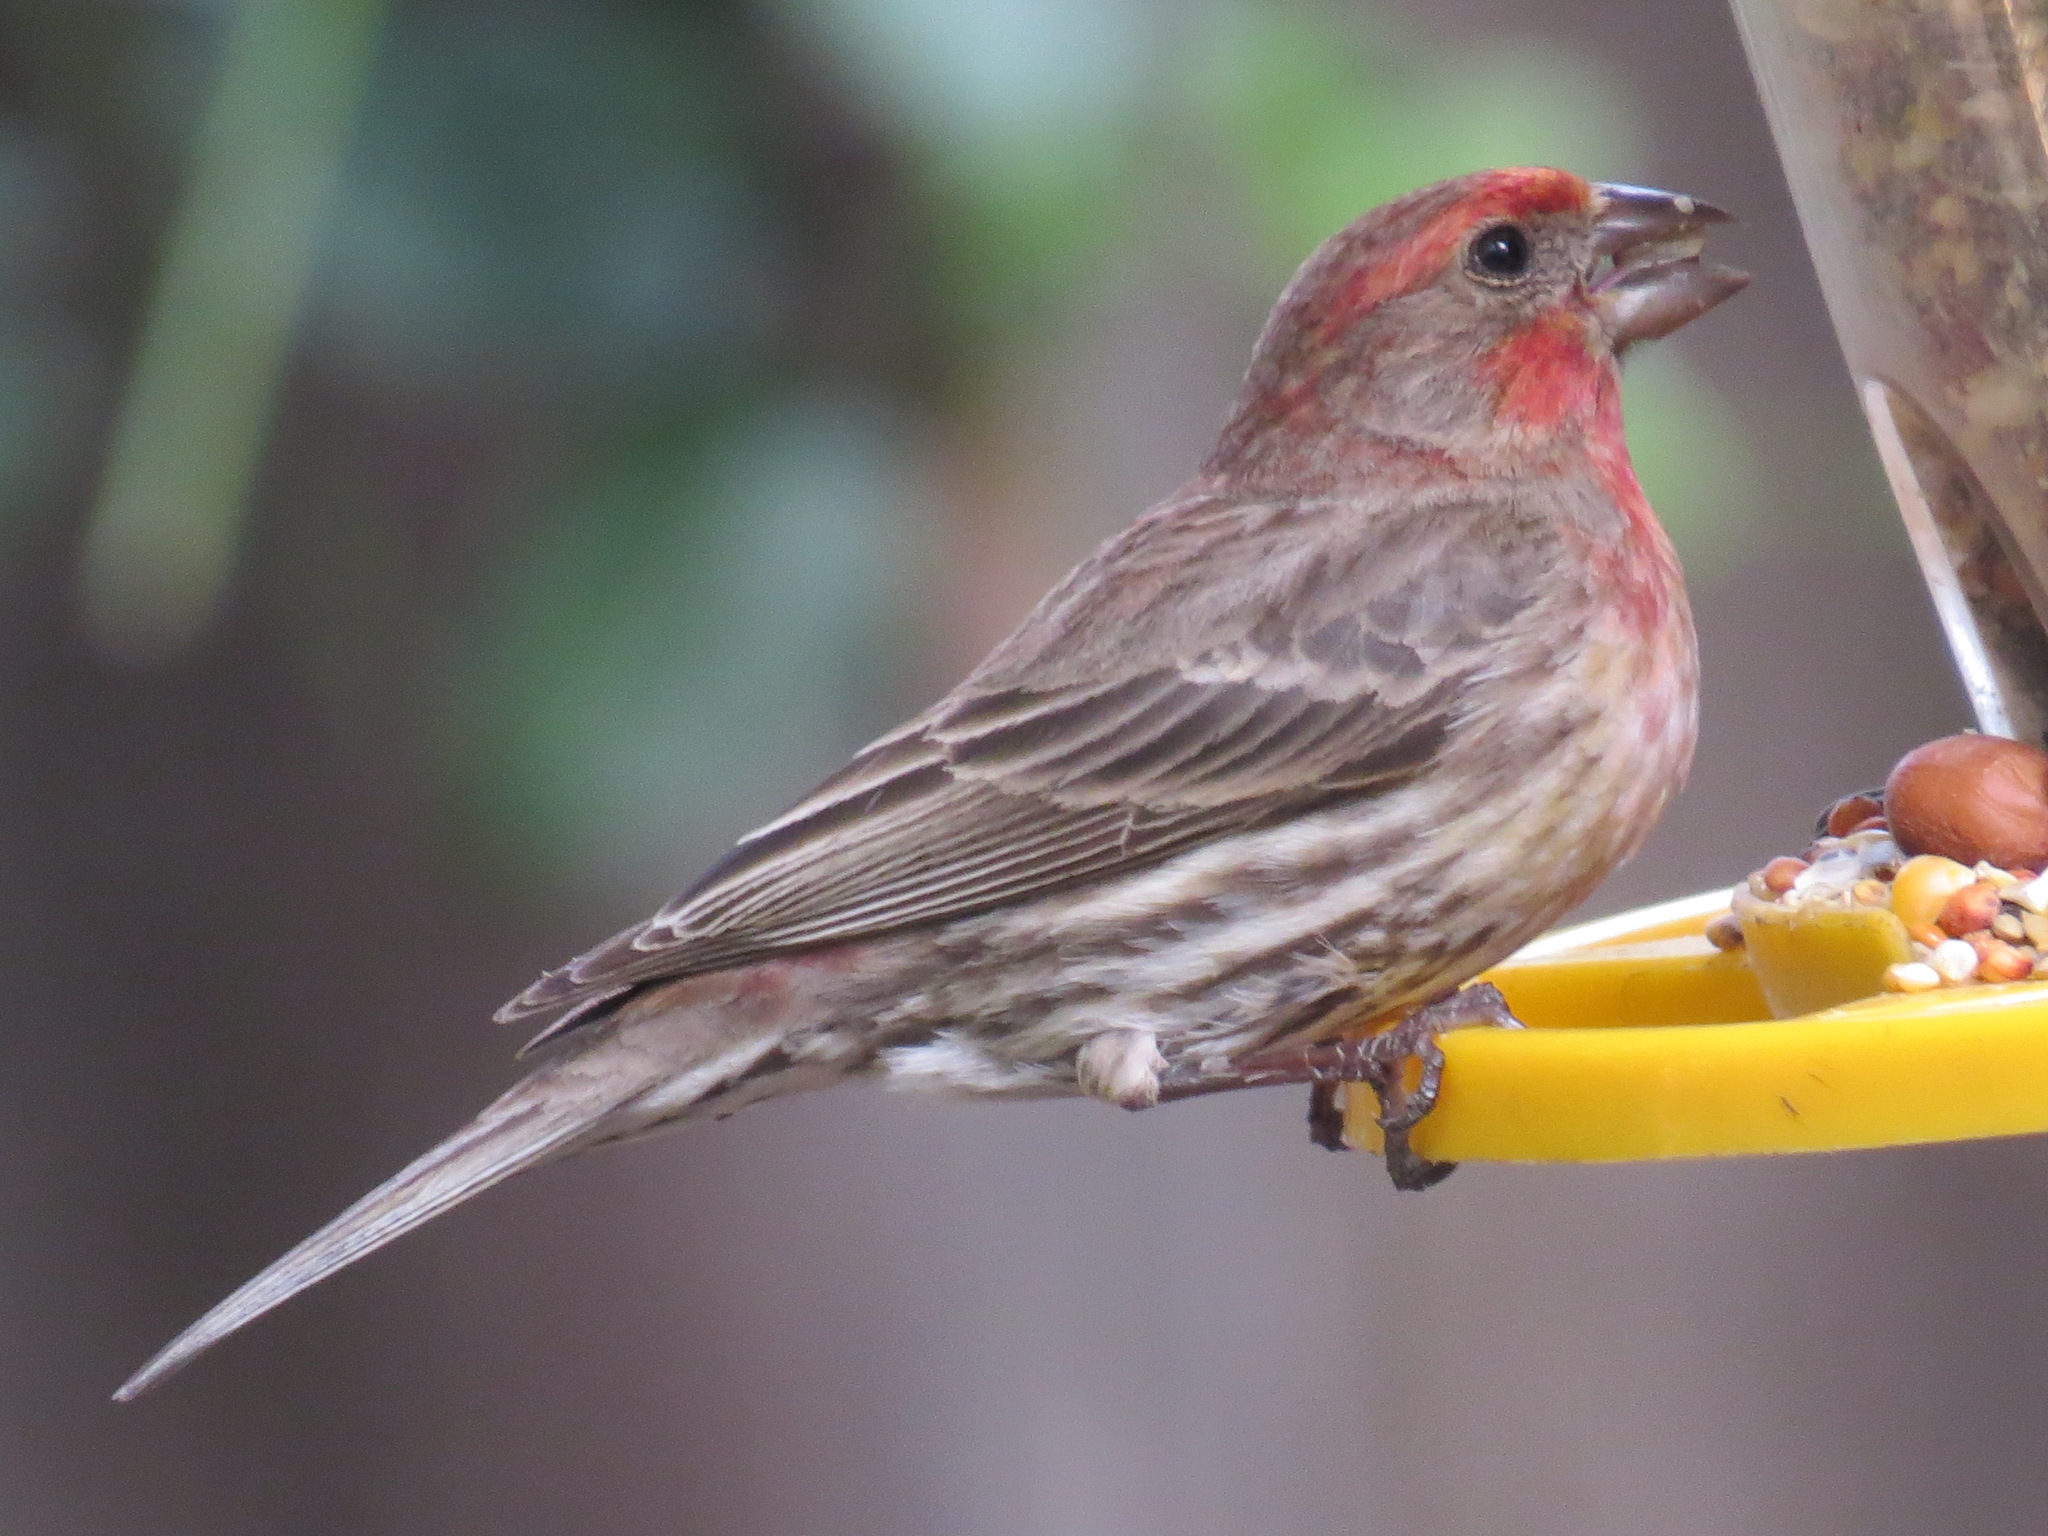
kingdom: Animalia
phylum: Chordata
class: Aves
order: Passeriformes
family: Fringillidae
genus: Haemorhous
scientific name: Haemorhous mexicanus
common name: House finch
